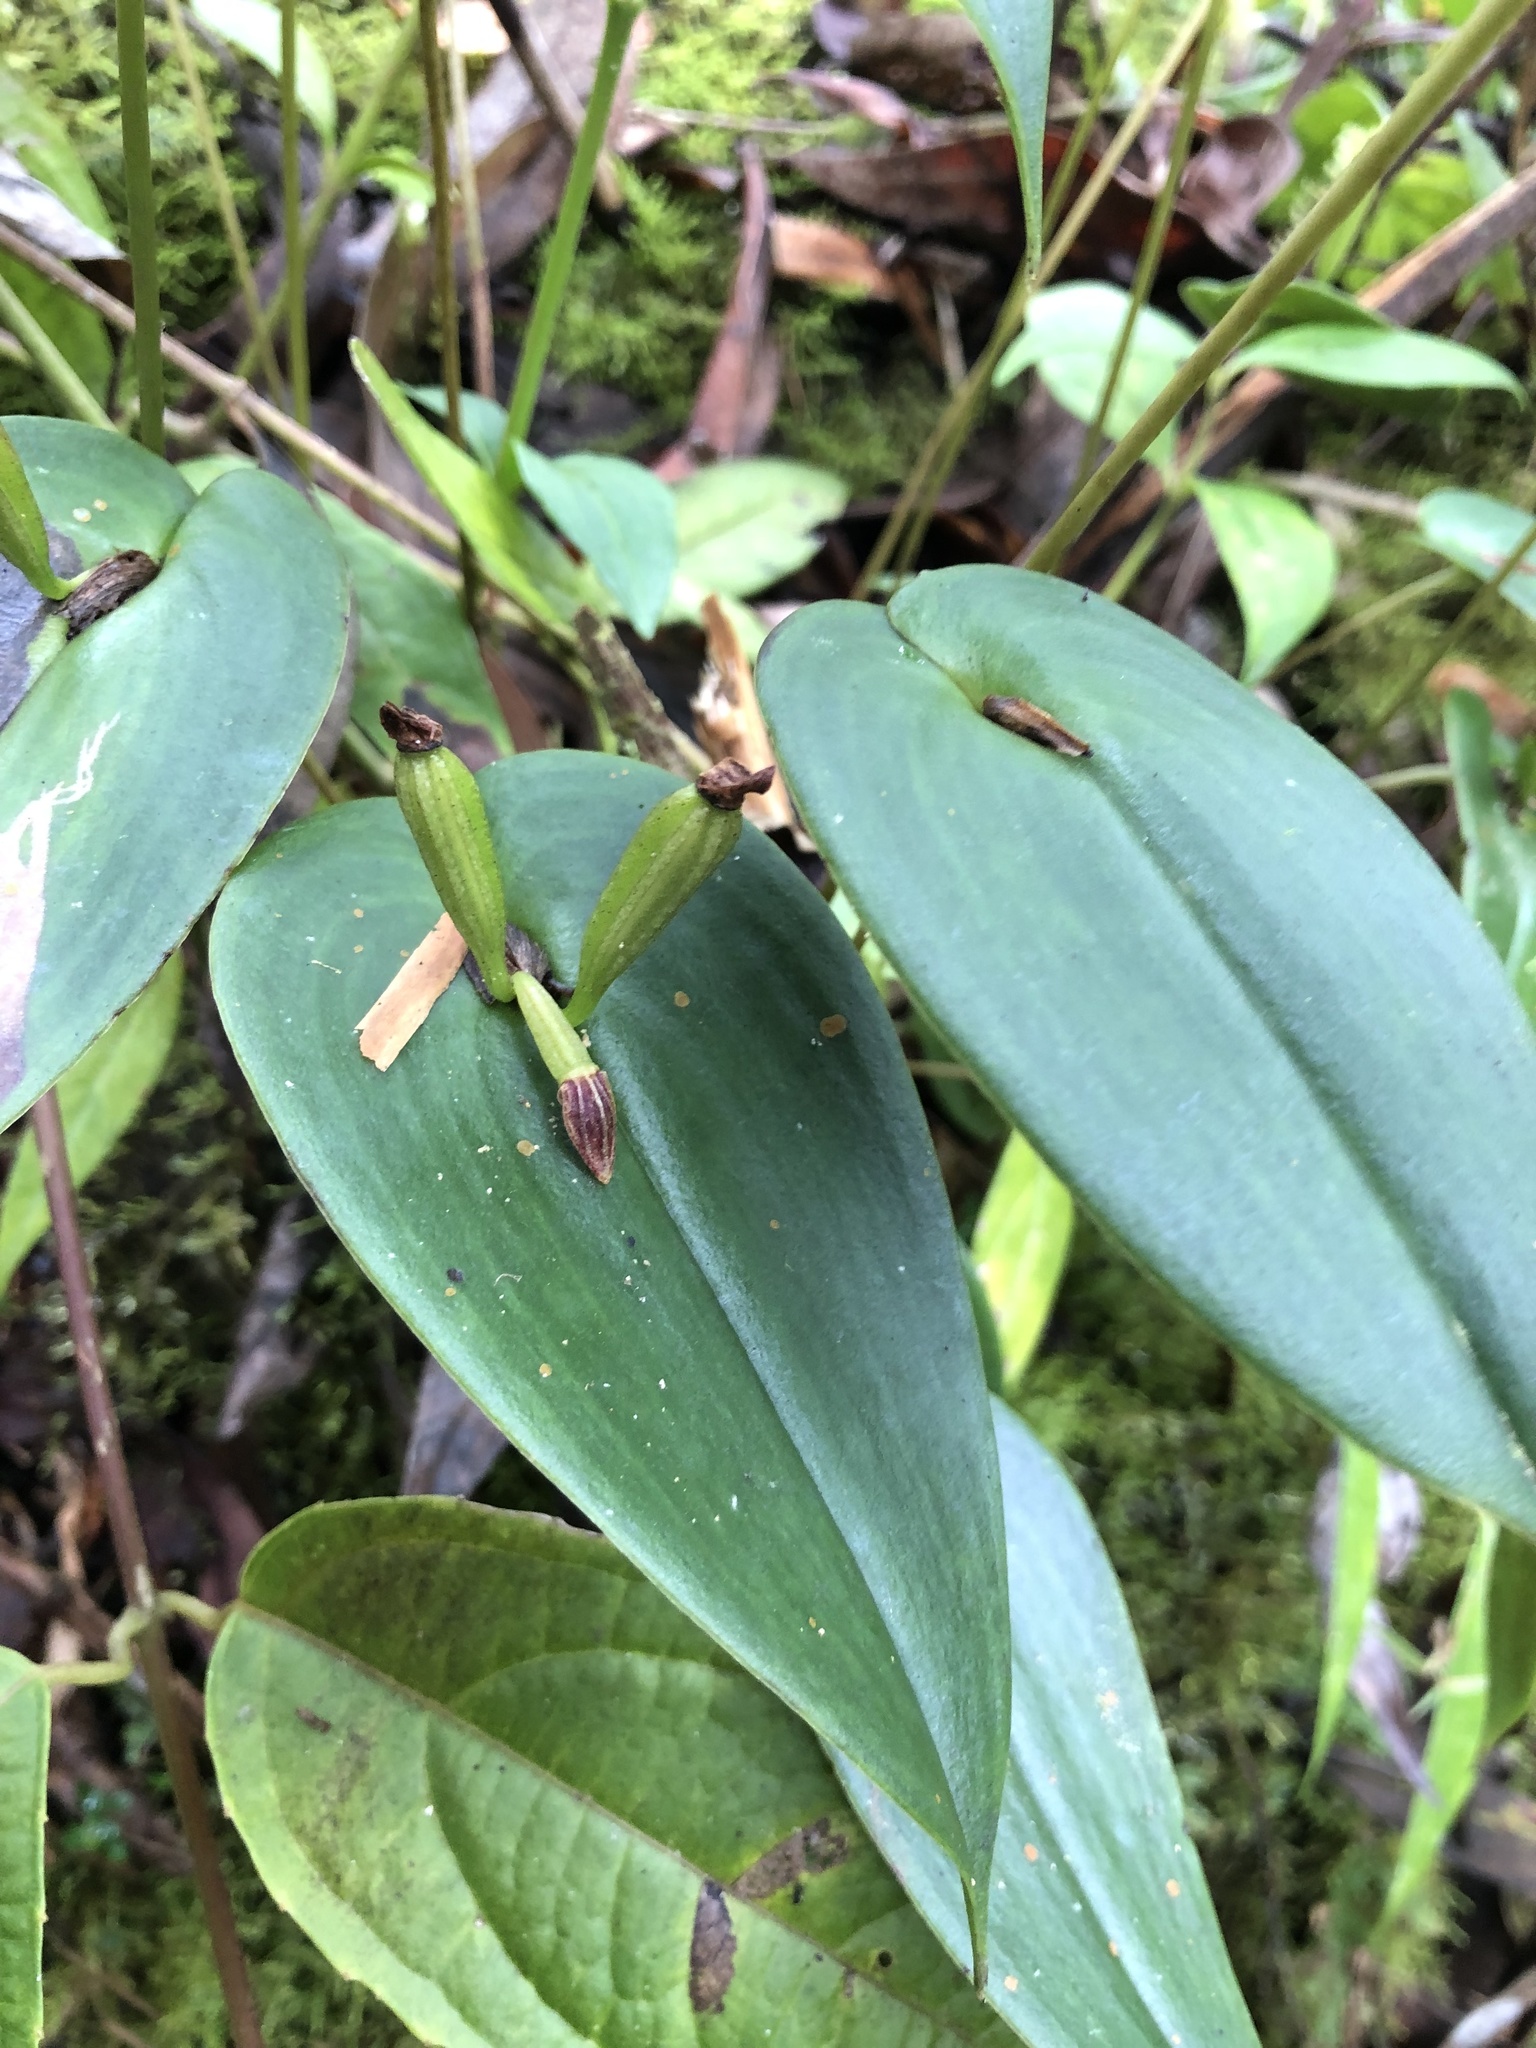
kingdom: Plantae
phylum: Tracheophyta
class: Liliopsida
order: Asparagales
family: Orchidaceae
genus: Pleurothallis
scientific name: Pleurothallis matudana
